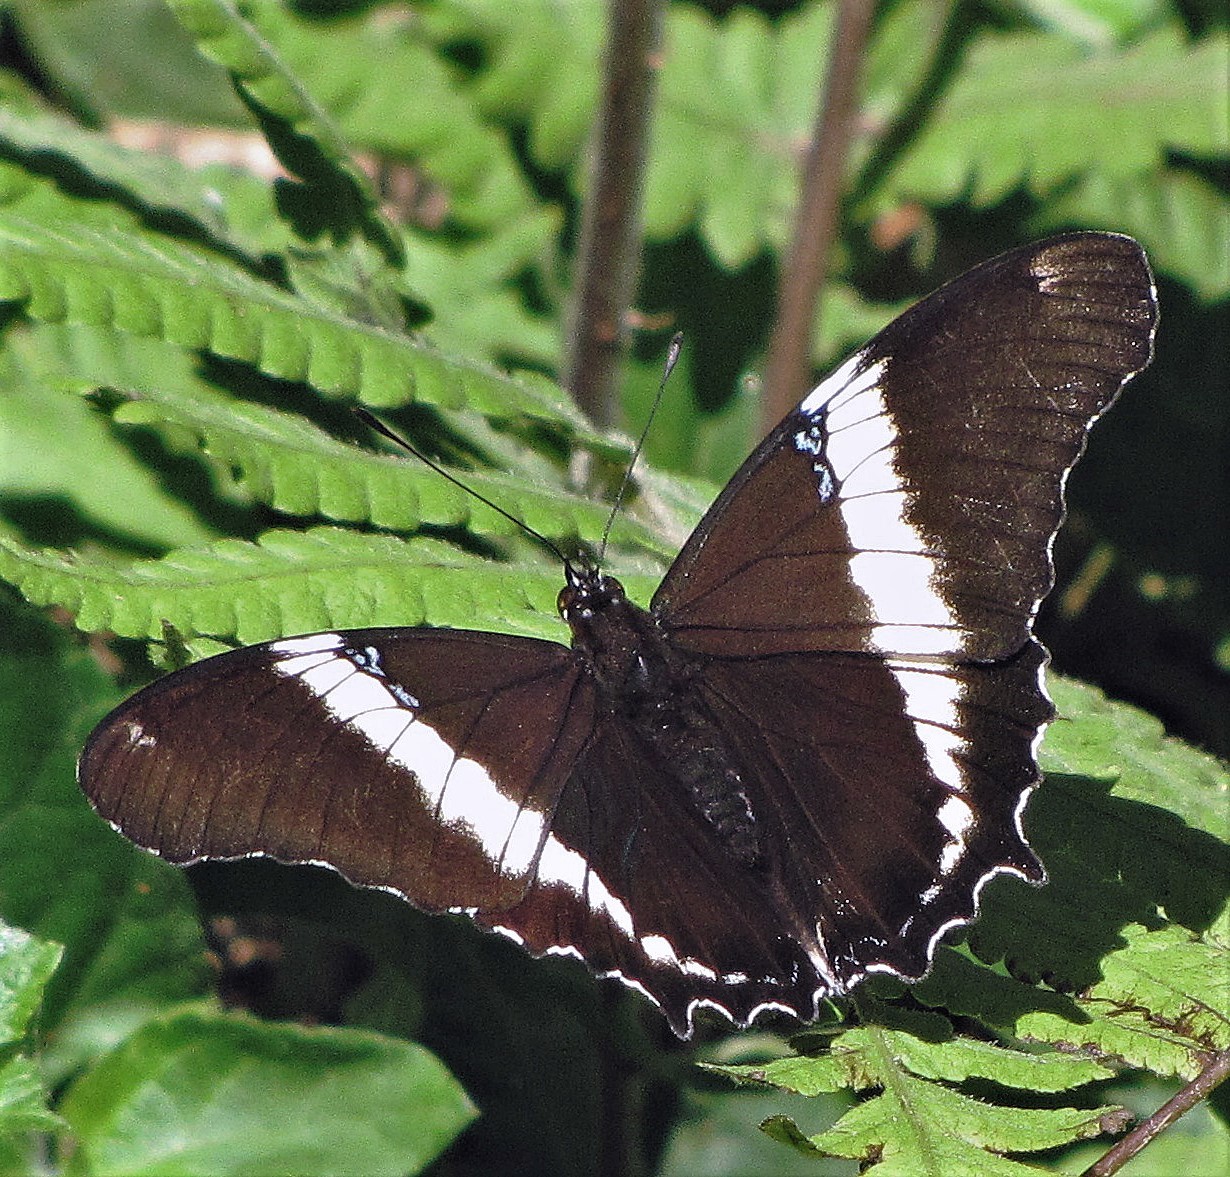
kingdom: Animalia
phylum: Arthropoda
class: Insecta
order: Lepidoptera
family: Nymphalidae
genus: Siproeta
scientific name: Siproeta epaphus
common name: Rusty-tipped page
